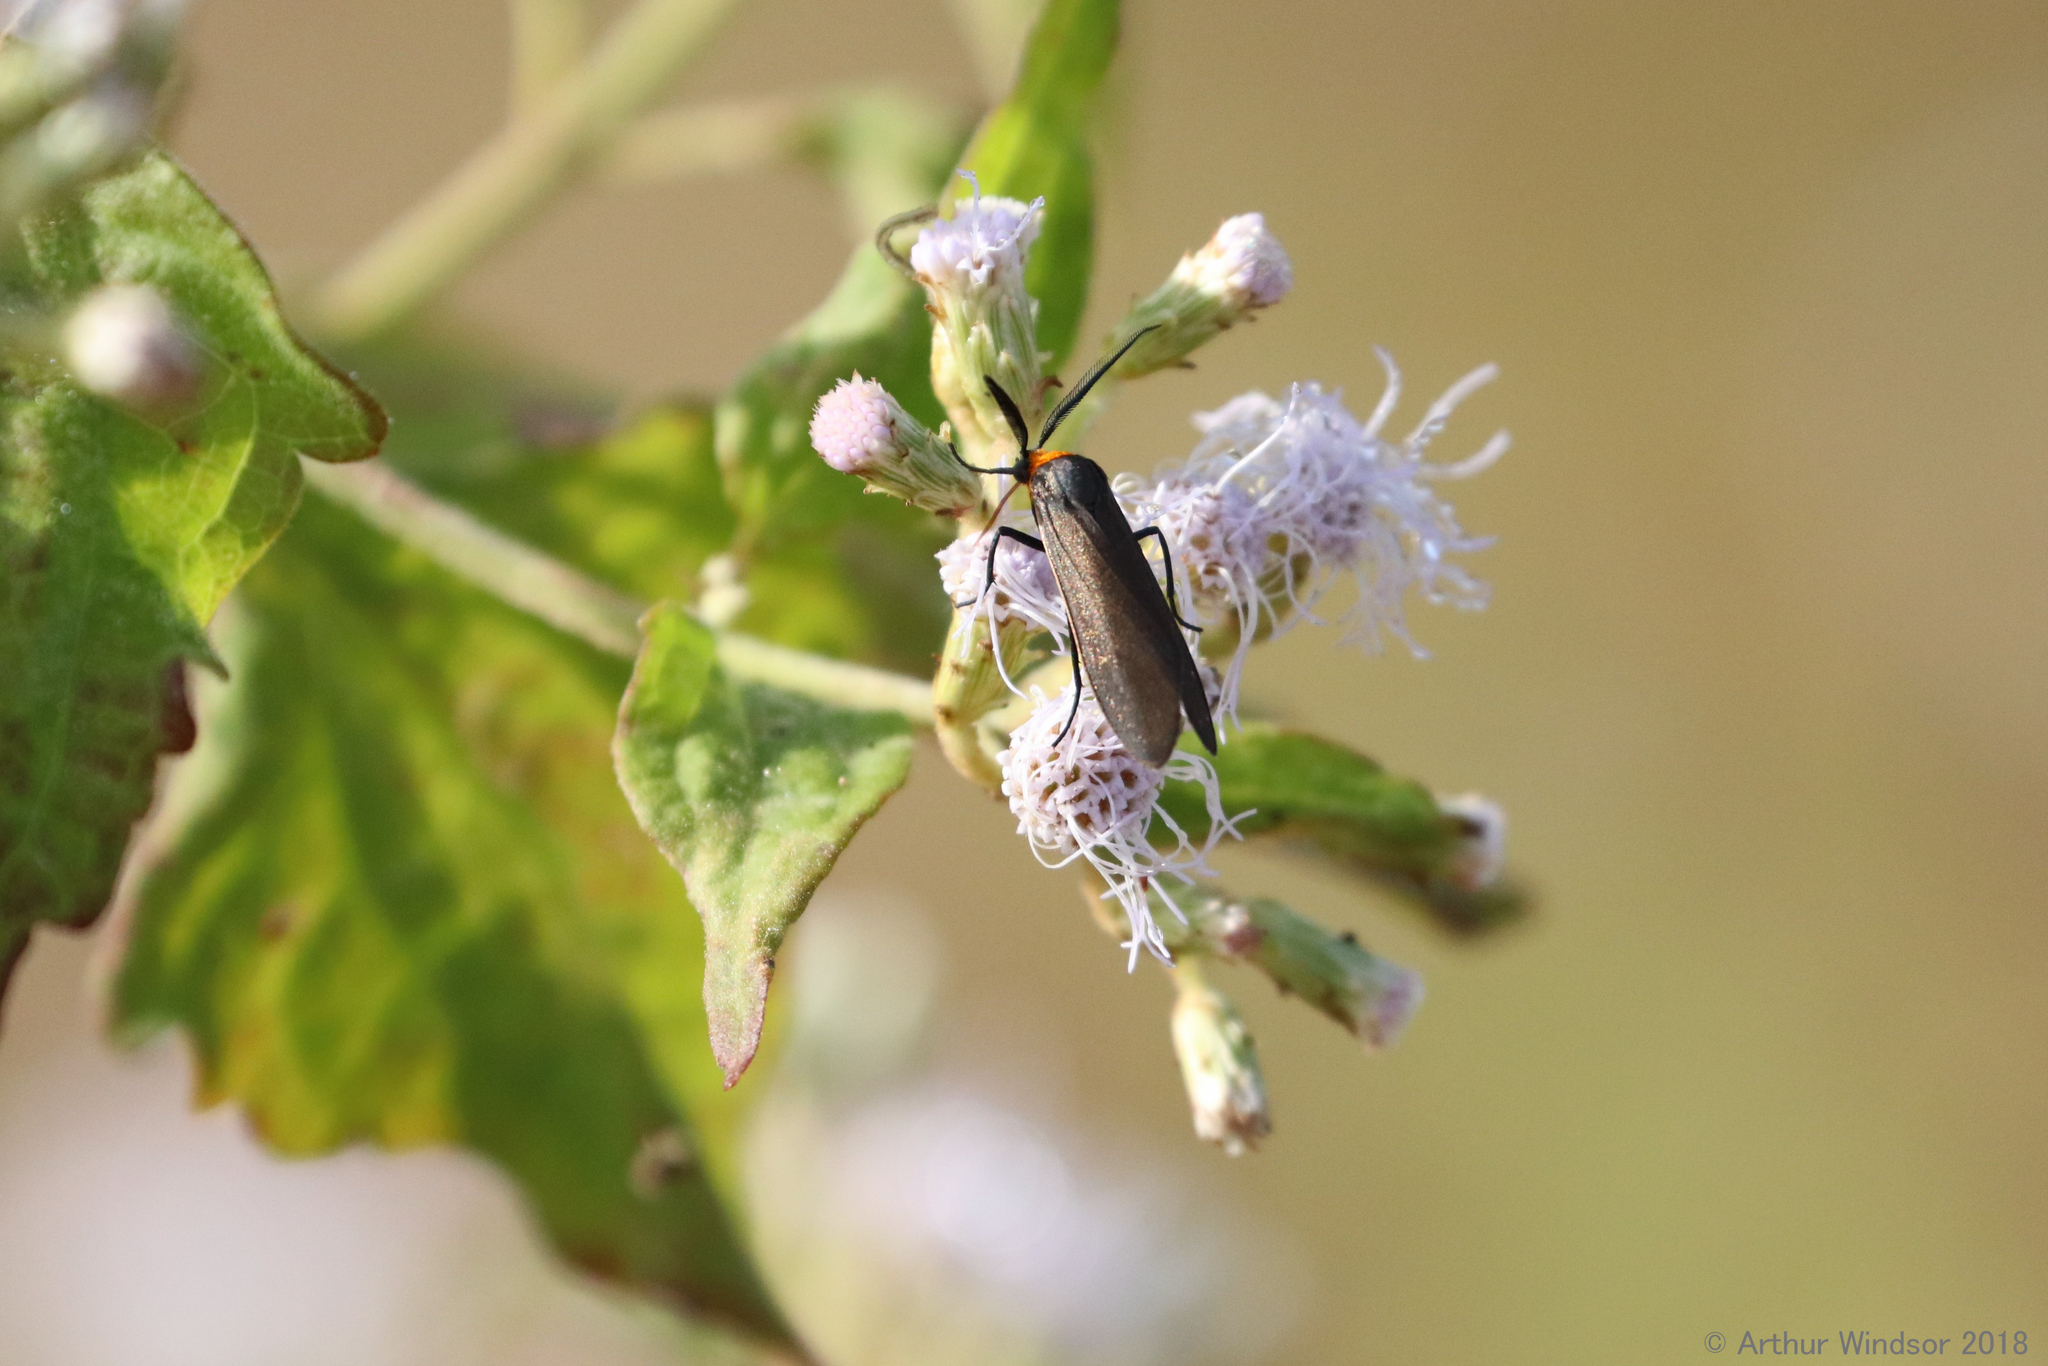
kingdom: Animalia
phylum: Arthropoda
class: Insecta
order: Lepidoptera
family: Erebidae
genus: Cisseps
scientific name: Cisseps fulvicollis
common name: Yellow-collared scape moth
